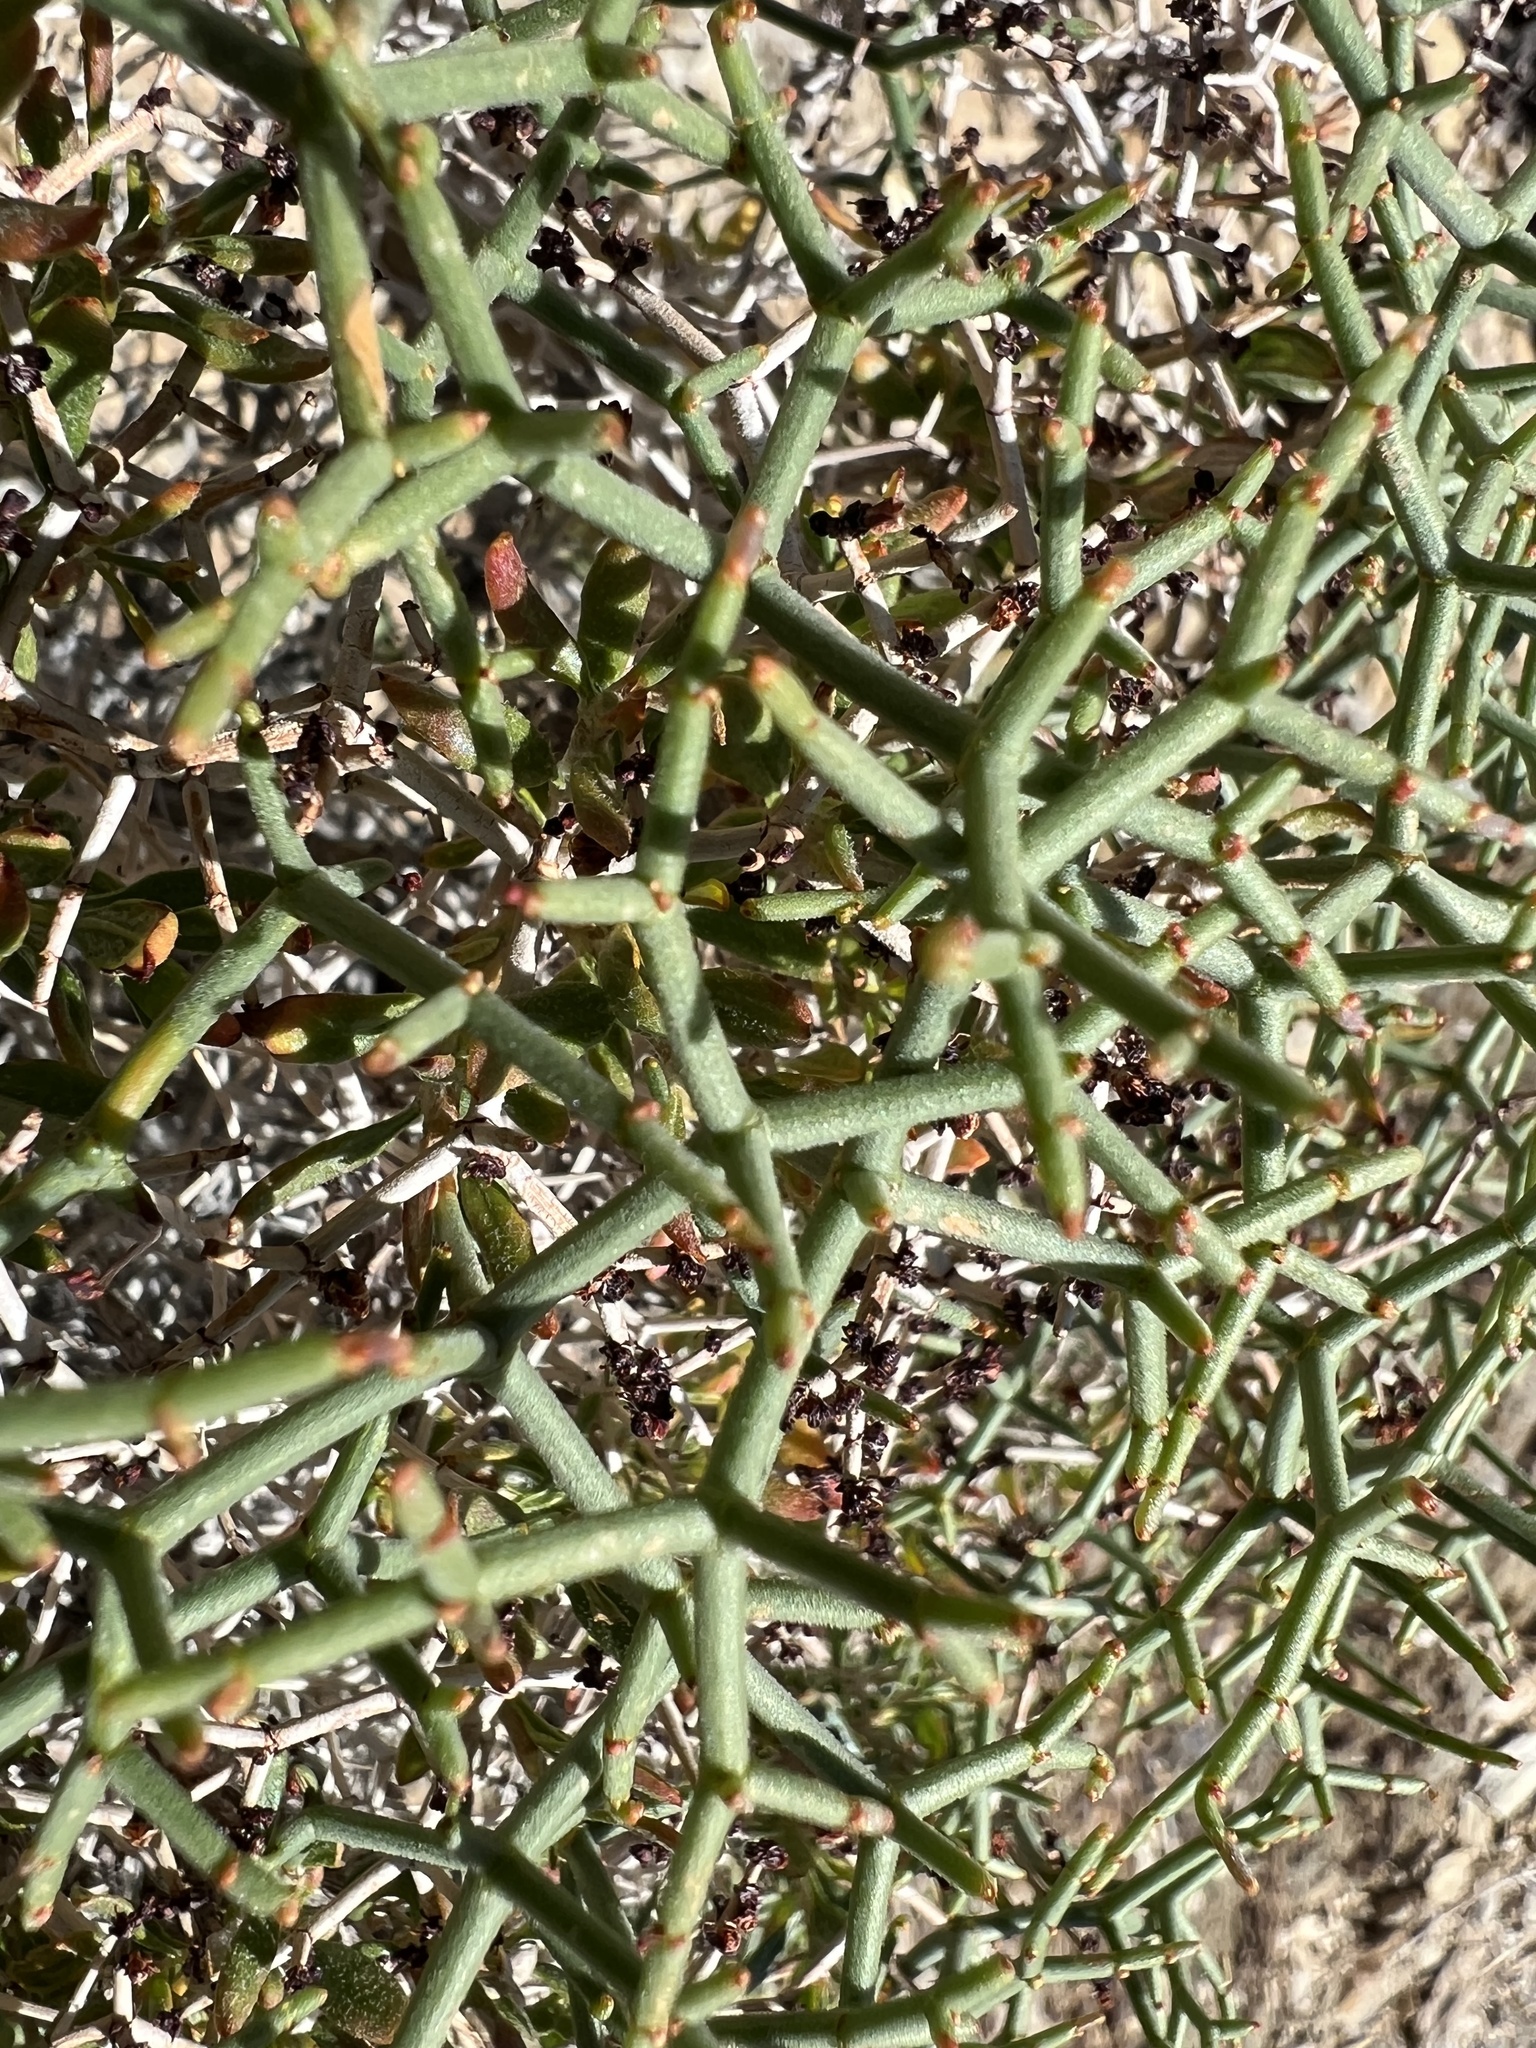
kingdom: Plantae
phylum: Tracheophyta
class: Magnoliopsida
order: Caryophyllales
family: Polygonaceae
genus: Eriogonum
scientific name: Eriogonum heermannii
